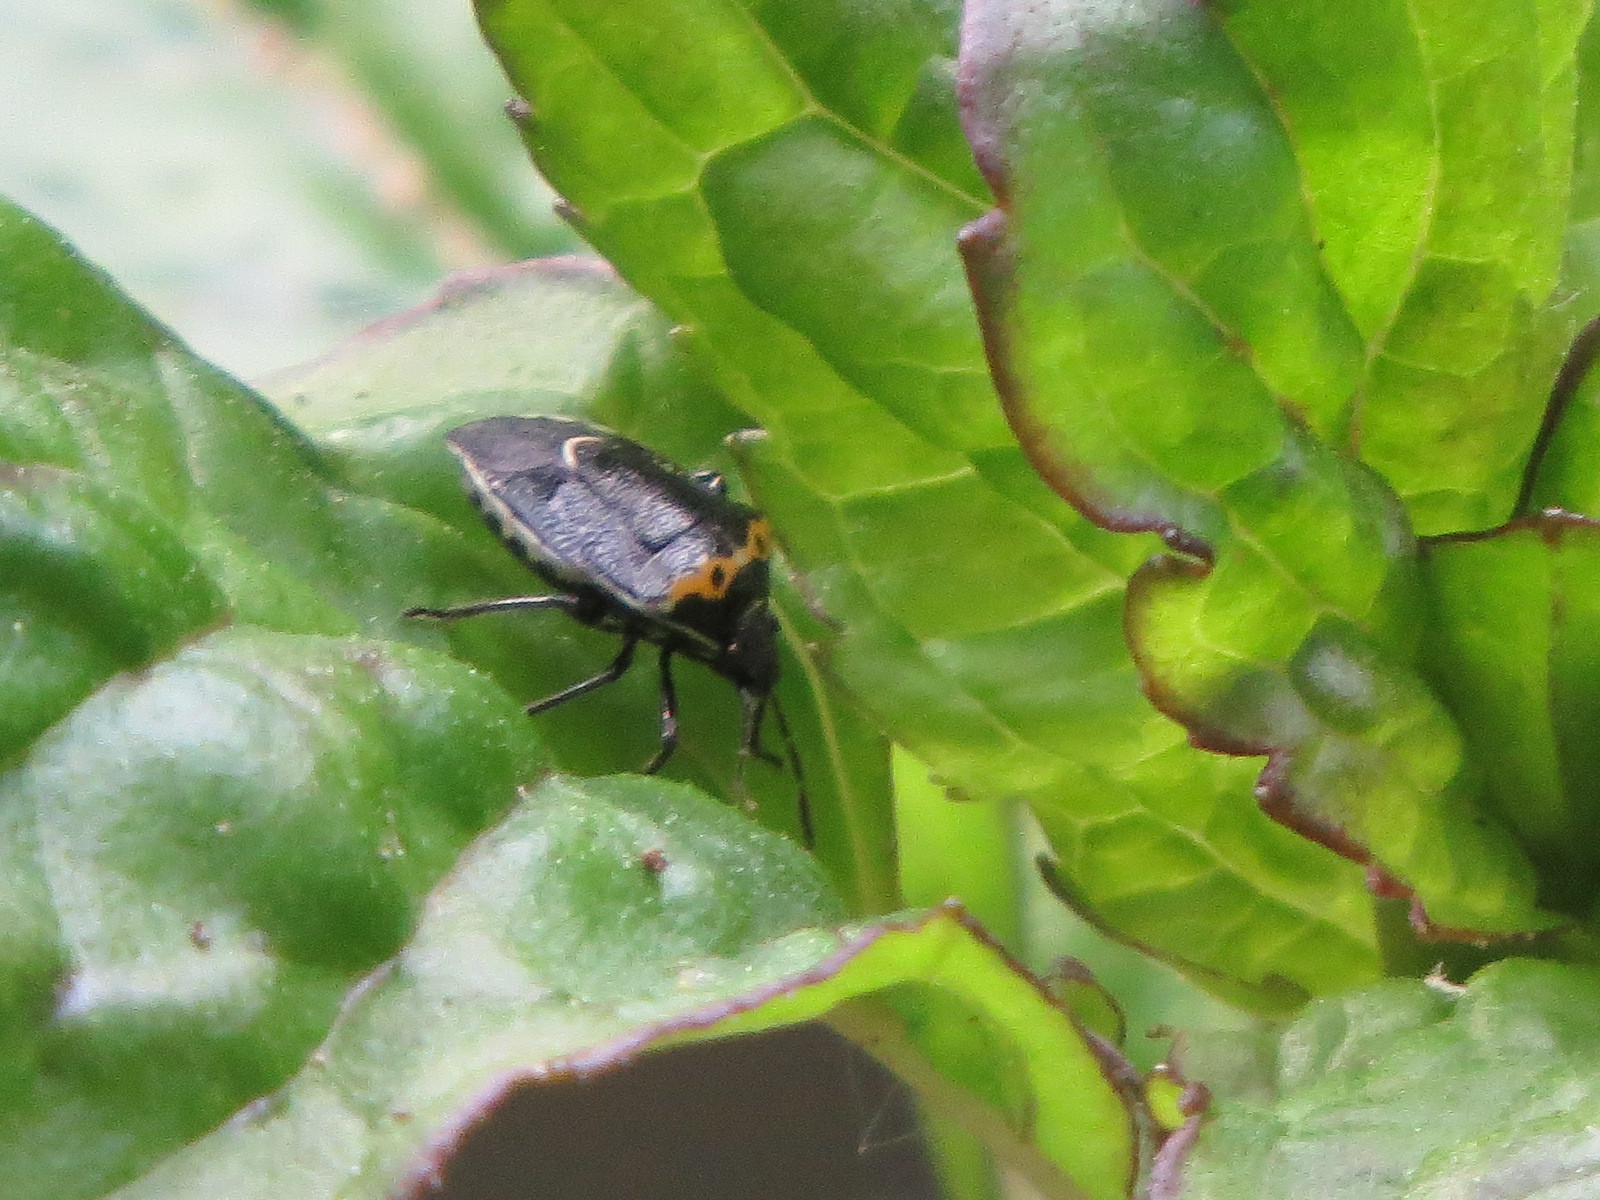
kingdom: Animalia
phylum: Arthropoda
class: Insecta
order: Hemiptera
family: Pentatomidae
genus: Cosmopepla
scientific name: Cosmopepla conspicillaris
